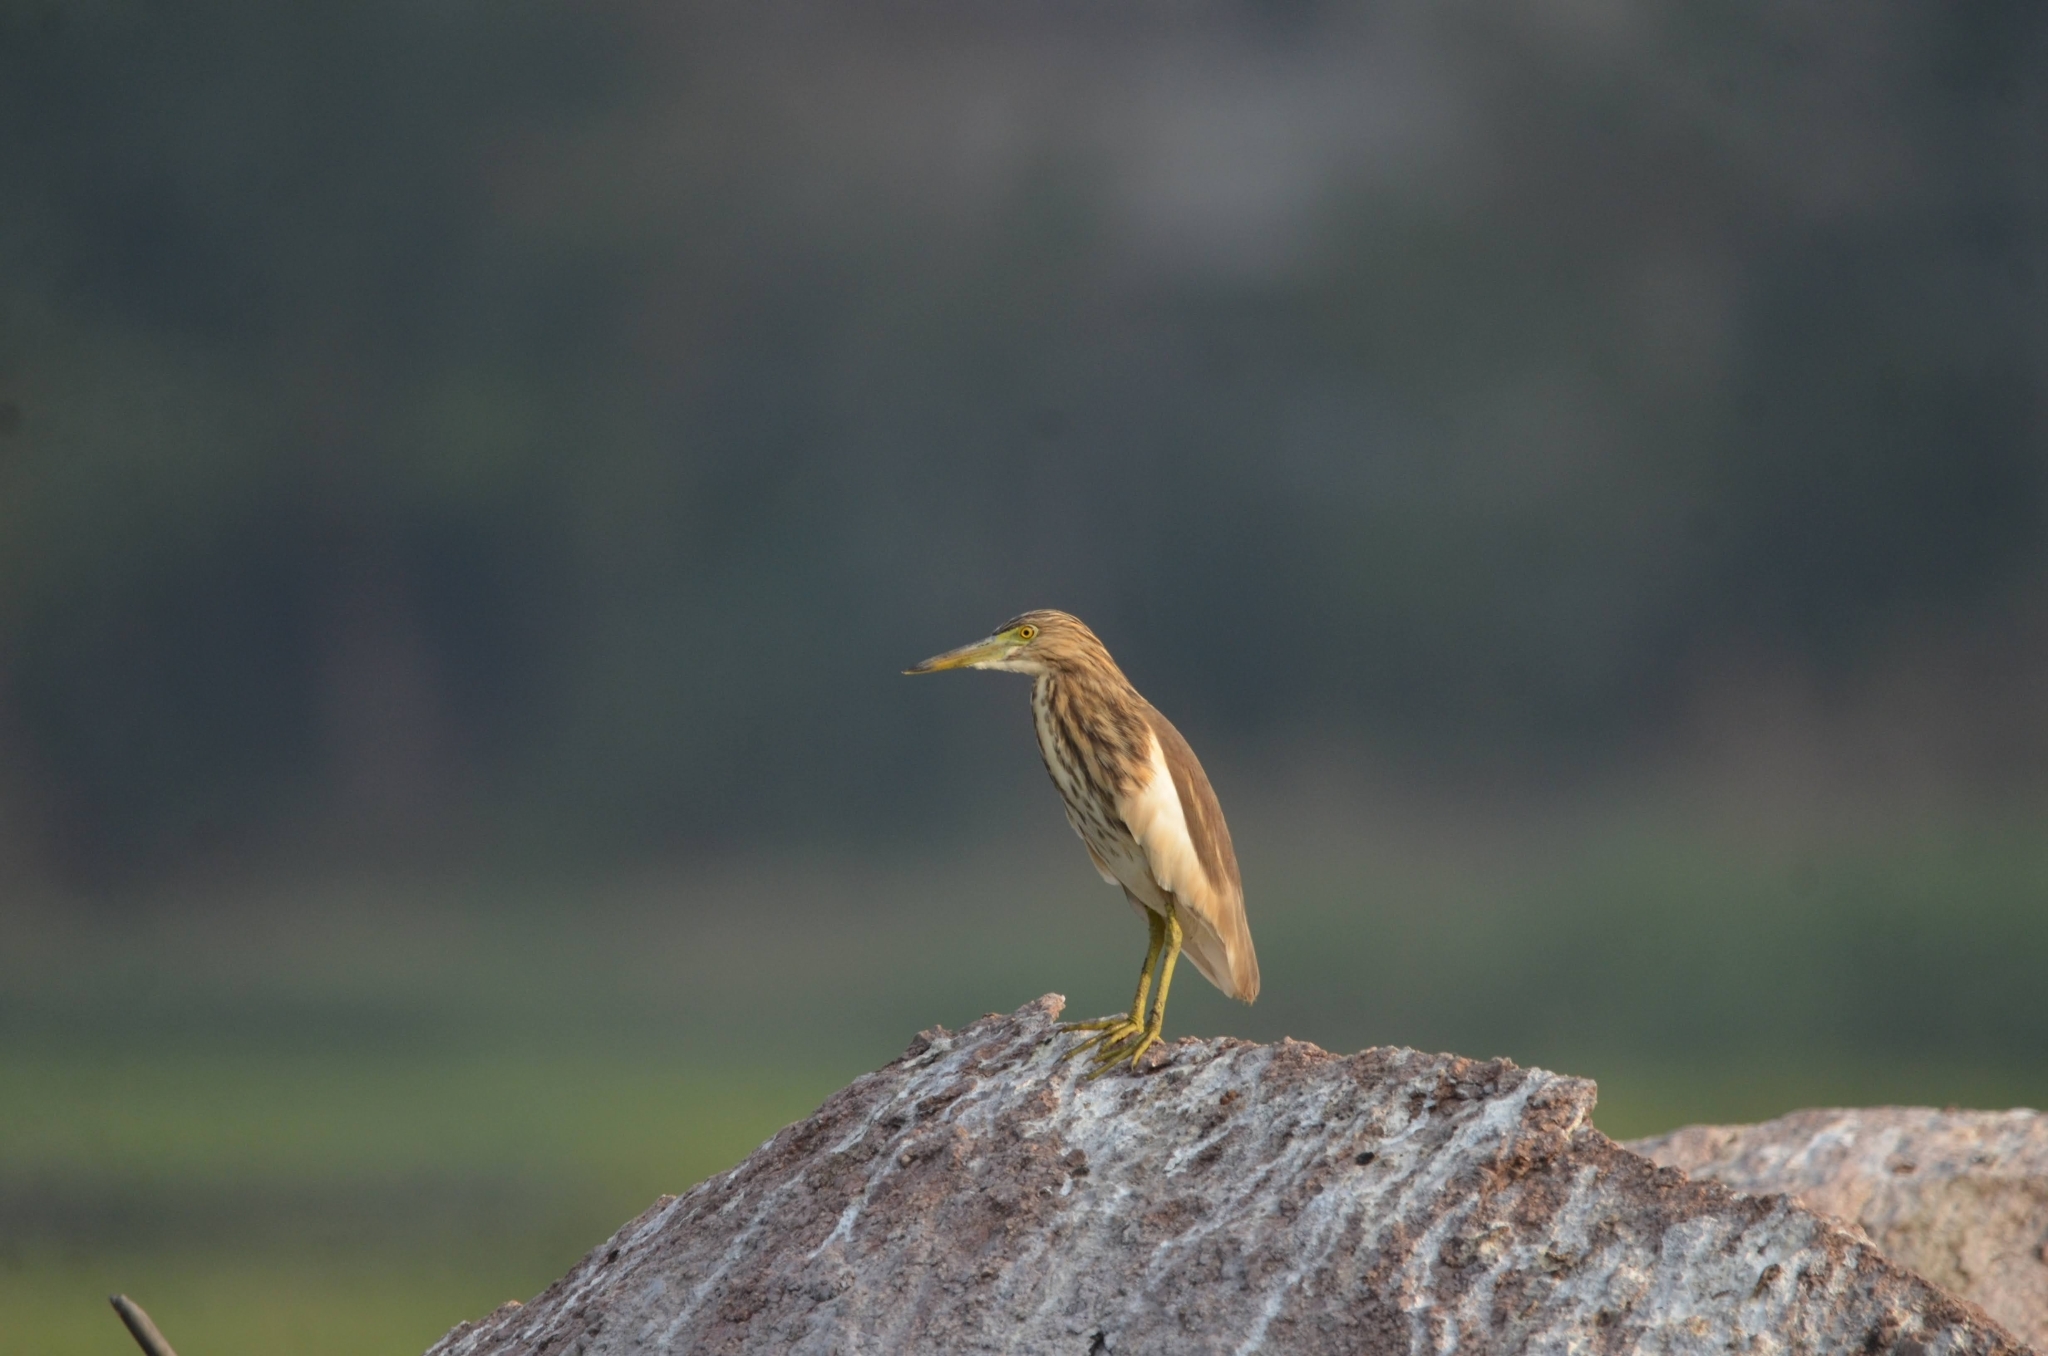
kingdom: Animalia
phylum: Chordata
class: Aves
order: Pelecaniformes
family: Ardeidae
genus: Ardeola
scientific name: Ardeola grayii
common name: Indian pond heron
